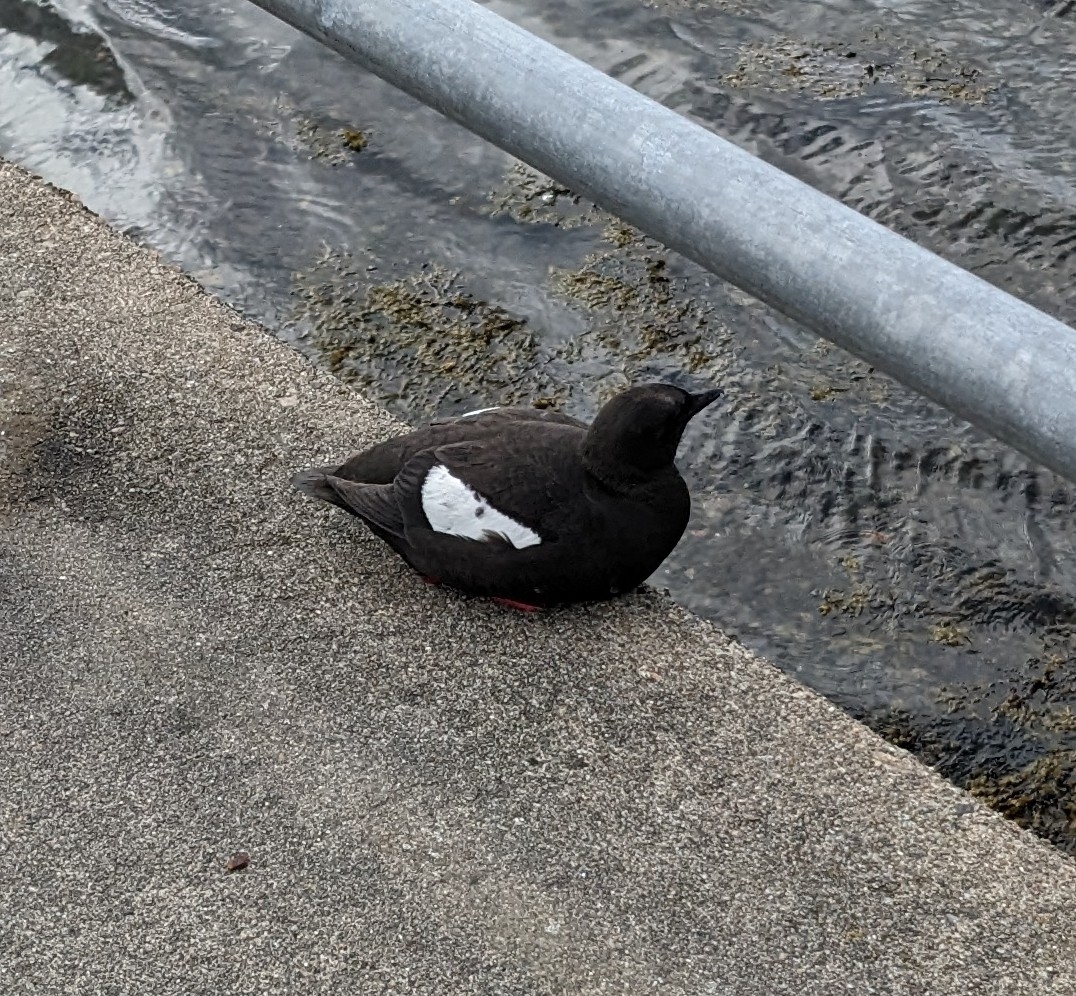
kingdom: Animalia
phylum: Chordata
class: Aves
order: Charadriiformes
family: Alcidae
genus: Cepphus
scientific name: Cepphus grylle
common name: Black guillemot
